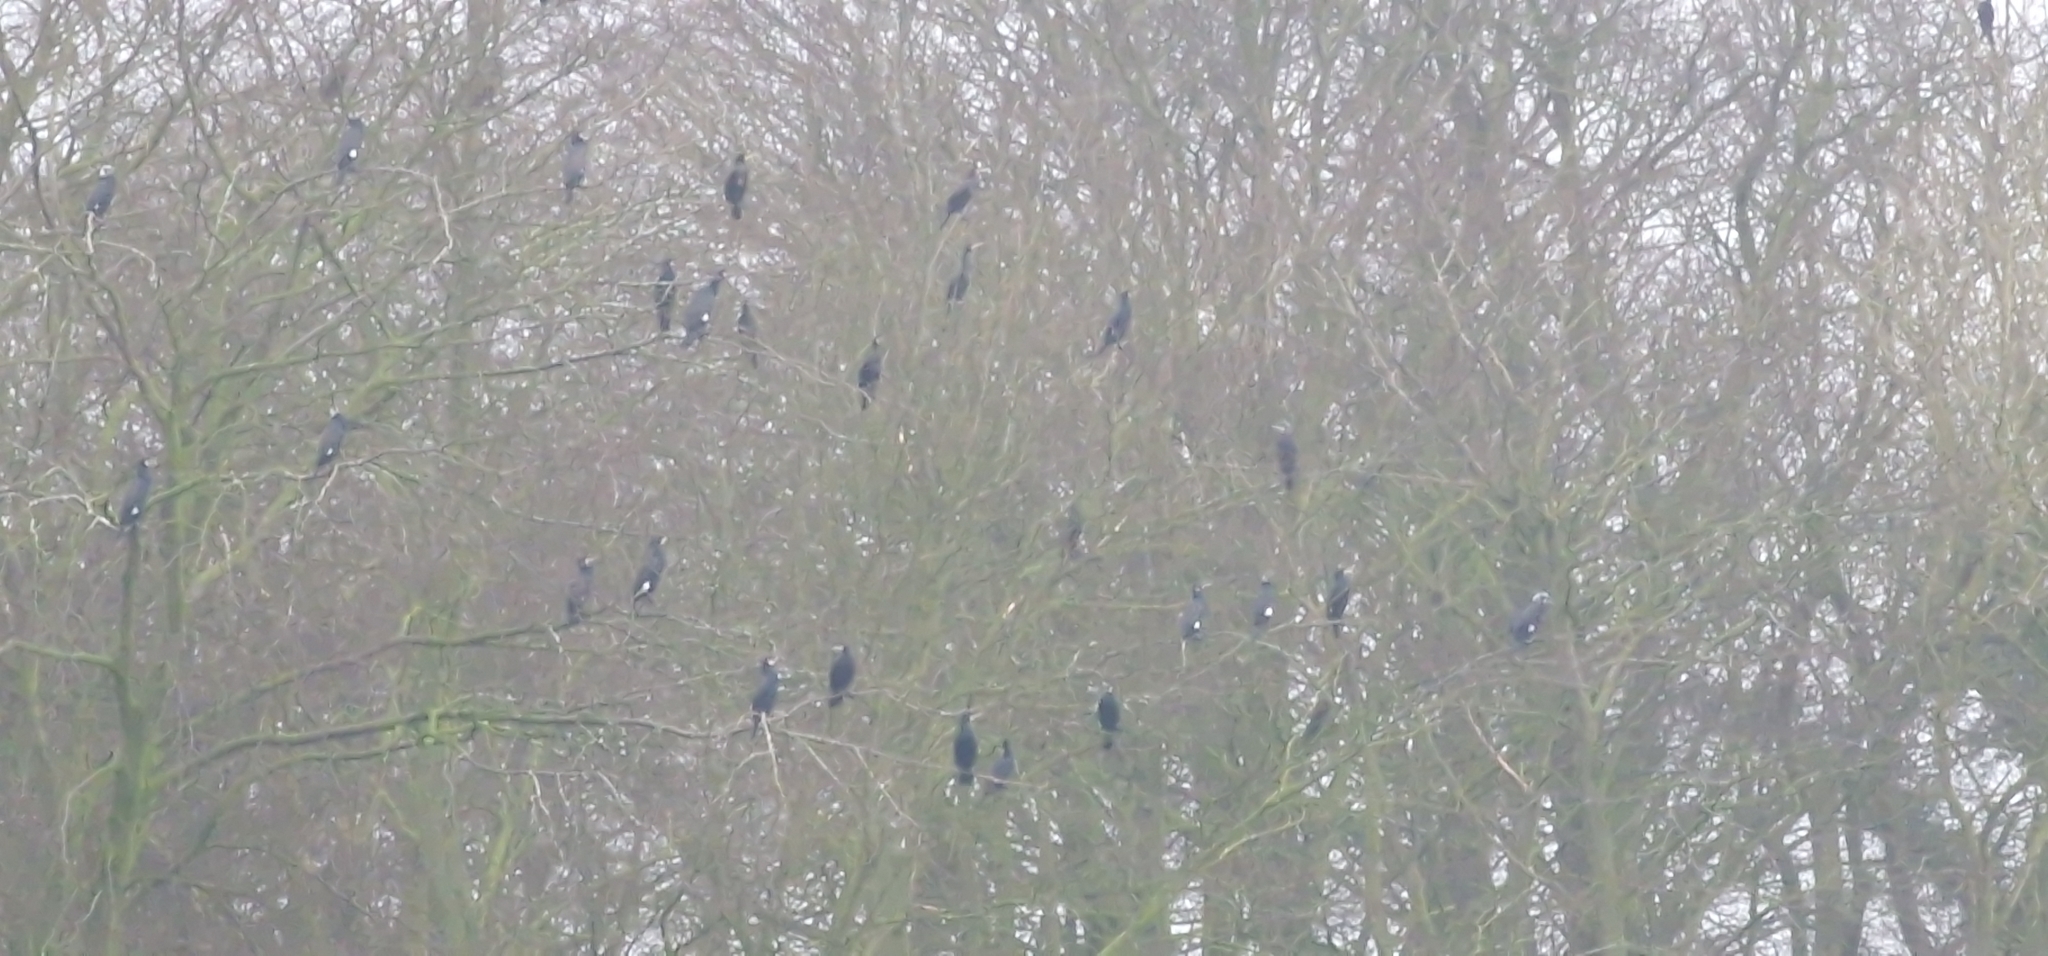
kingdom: Animalia
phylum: Chordata
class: Aves
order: Suliformes
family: Phalacrocoracidae
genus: Phalacrocorax
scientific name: Phalacrocorax carbo
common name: Great cormorant
